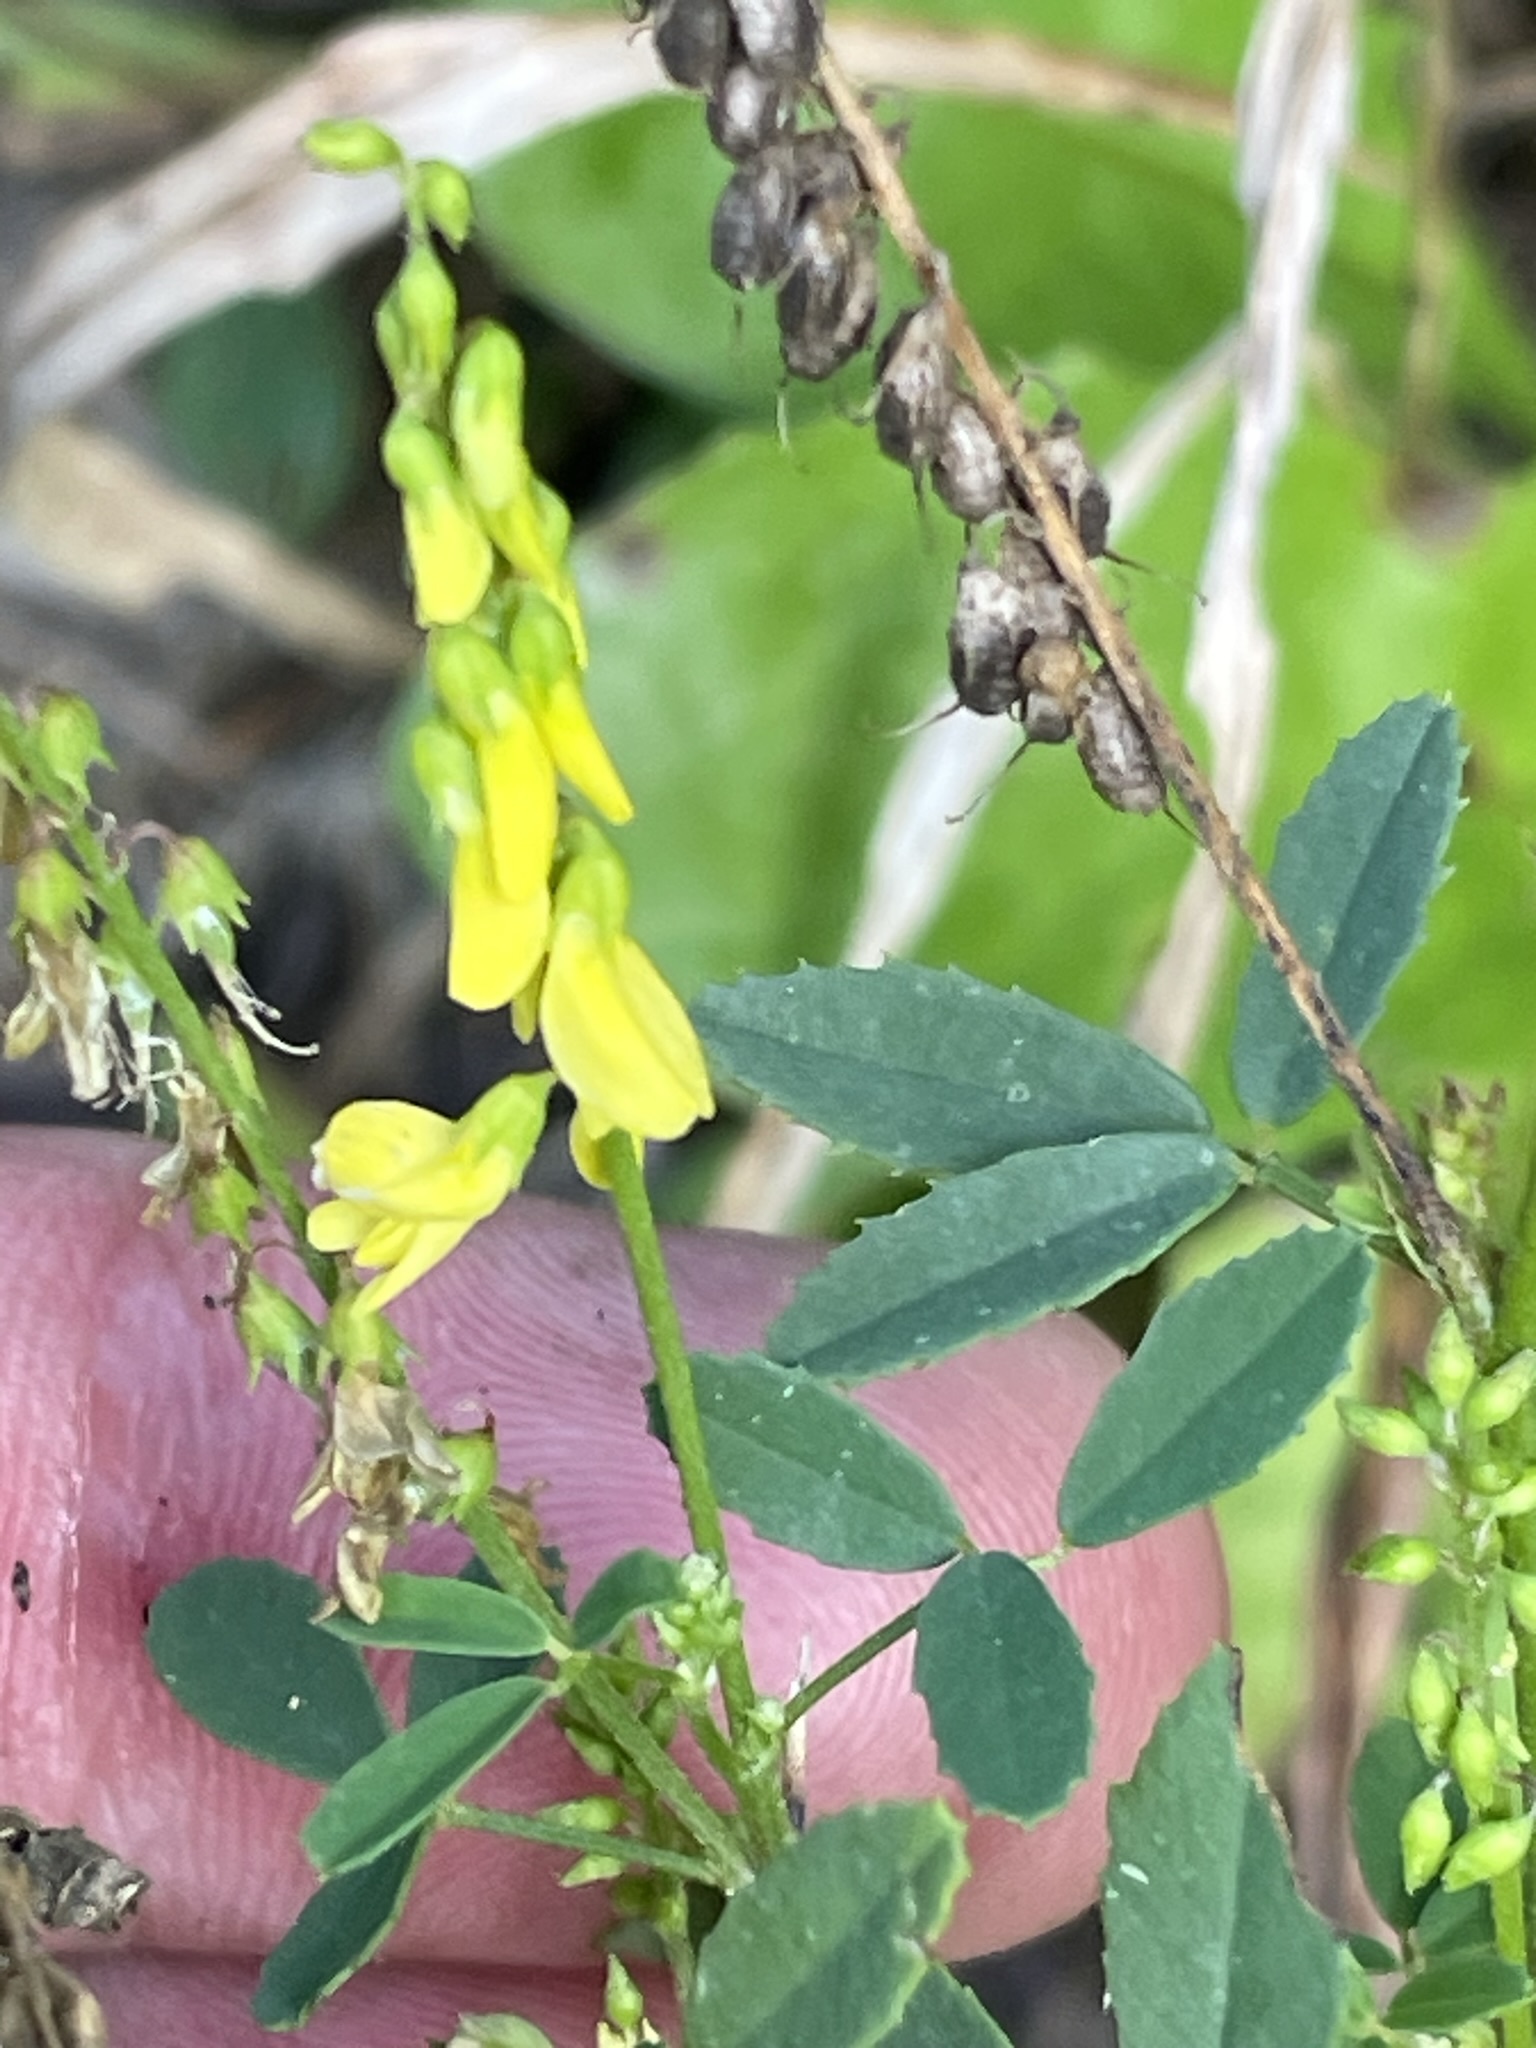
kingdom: Plantae
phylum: Tracheophyta
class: Magnoliopsida
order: Fabales
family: Fabaceae
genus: Melilotus
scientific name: Melilotus officinalis
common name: Sweetclover
